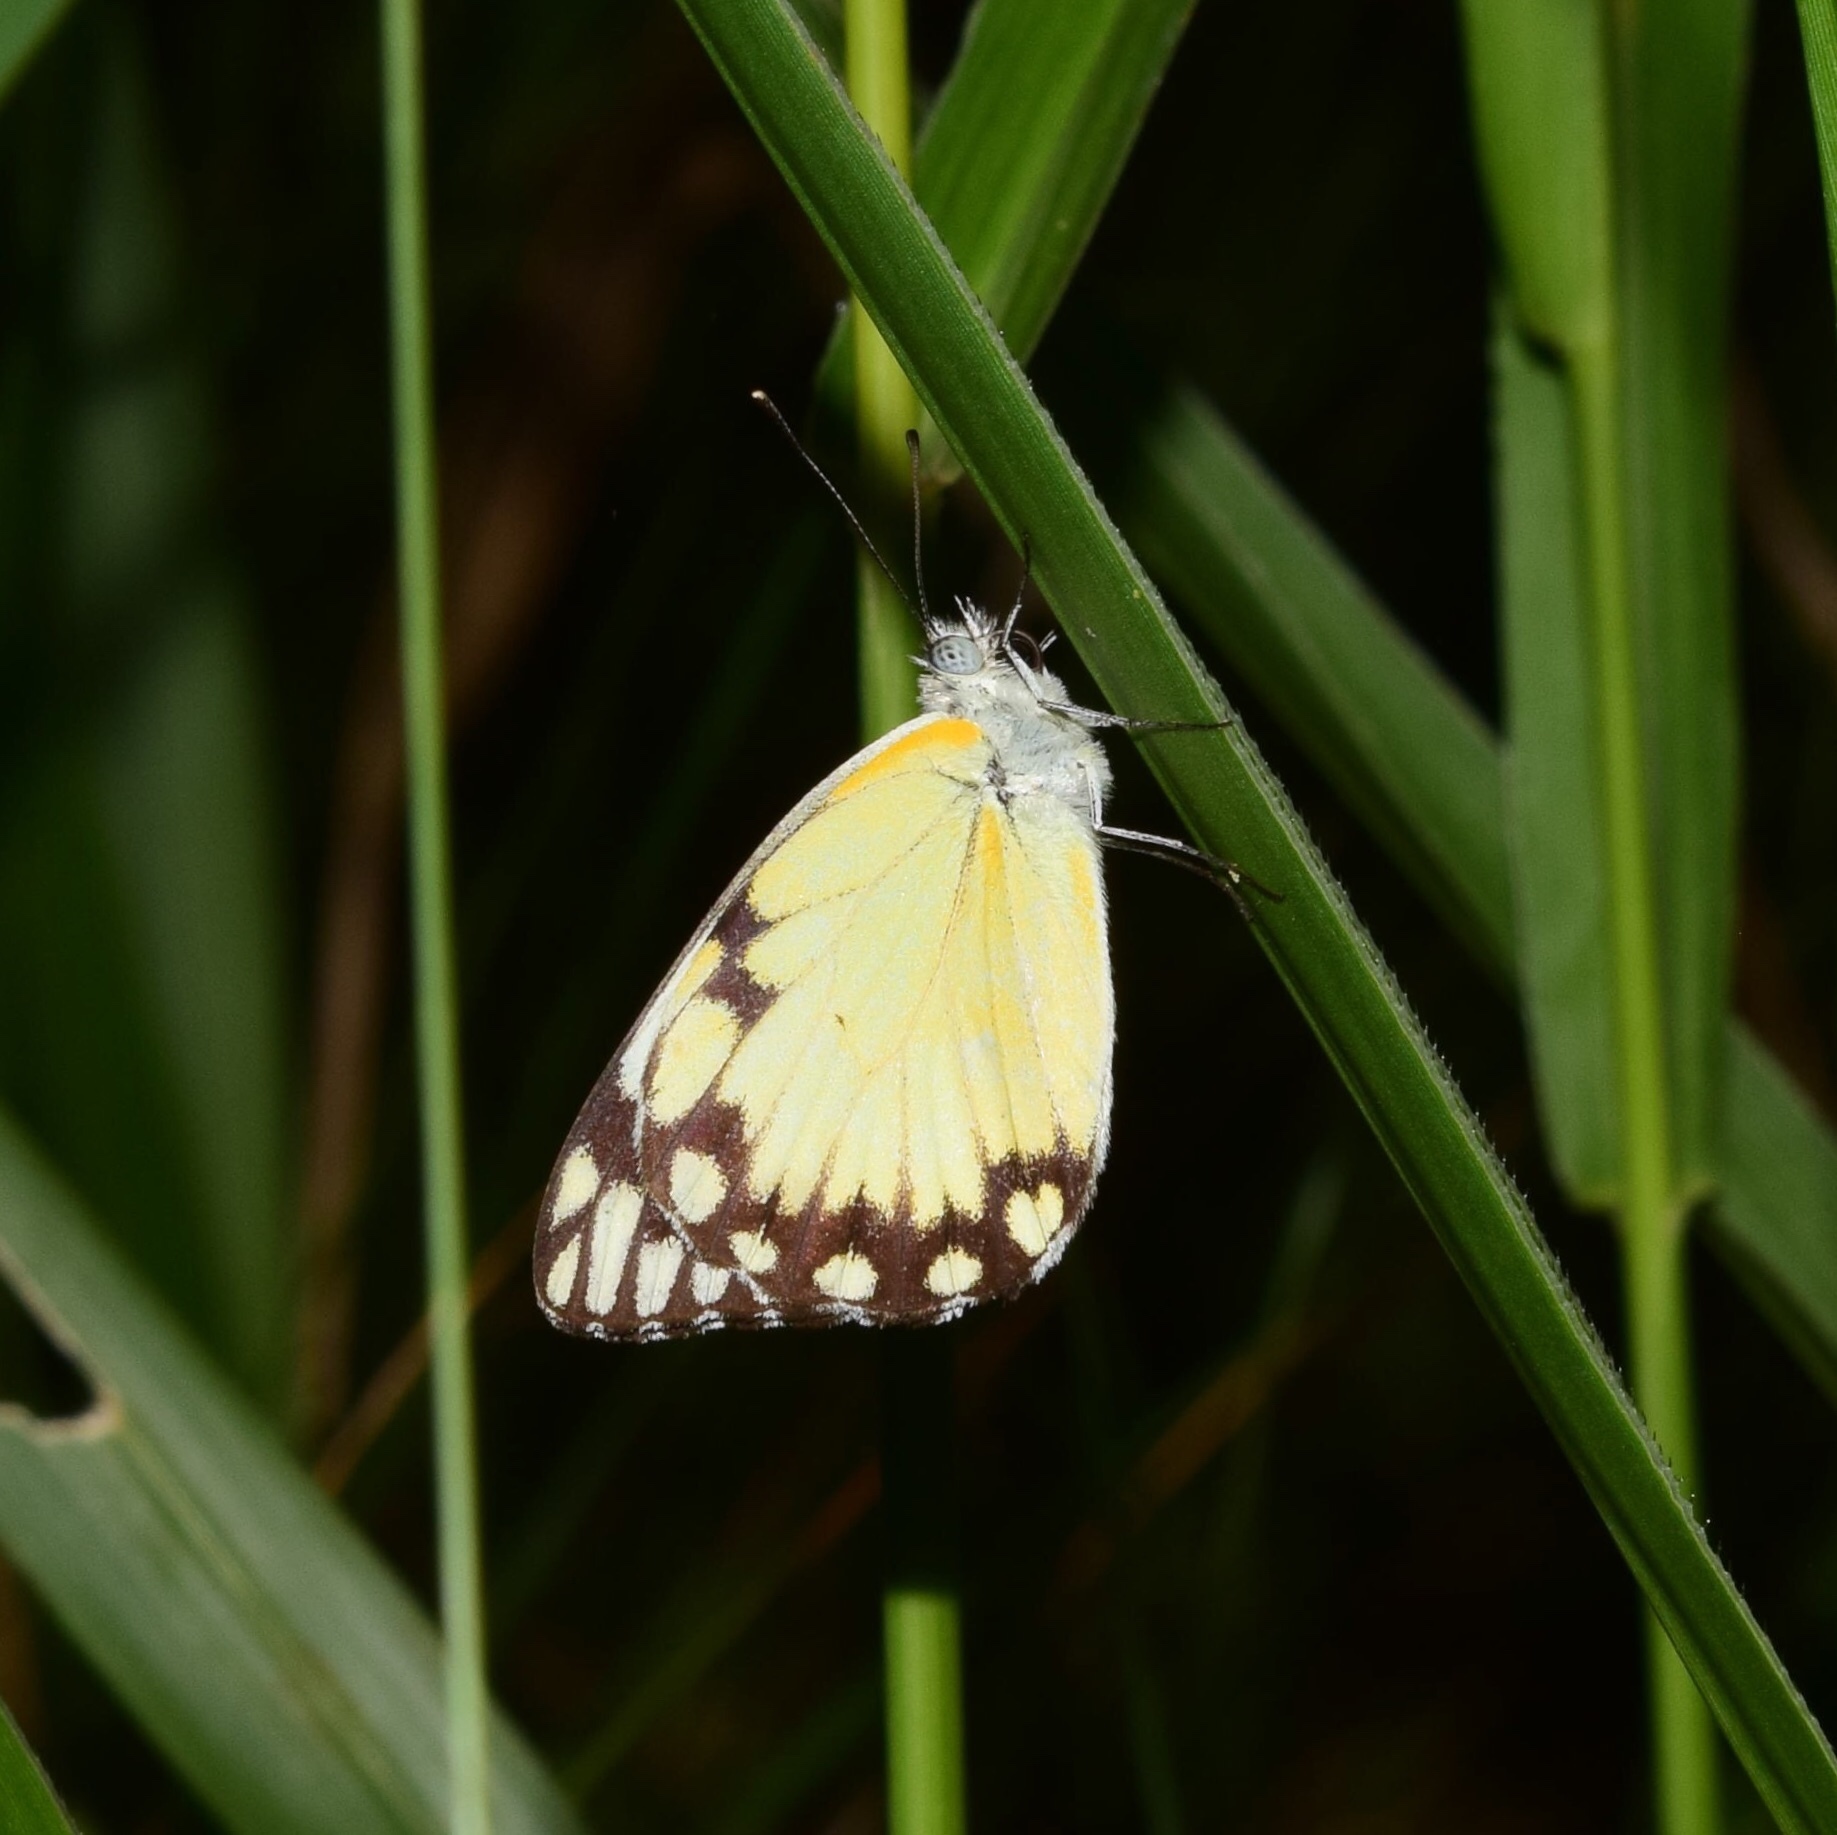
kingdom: Animalia
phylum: Arthropoda
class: Insecta
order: Lepidoptera
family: Pieridae
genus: Belenois
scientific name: Belenois creona
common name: African caper white
